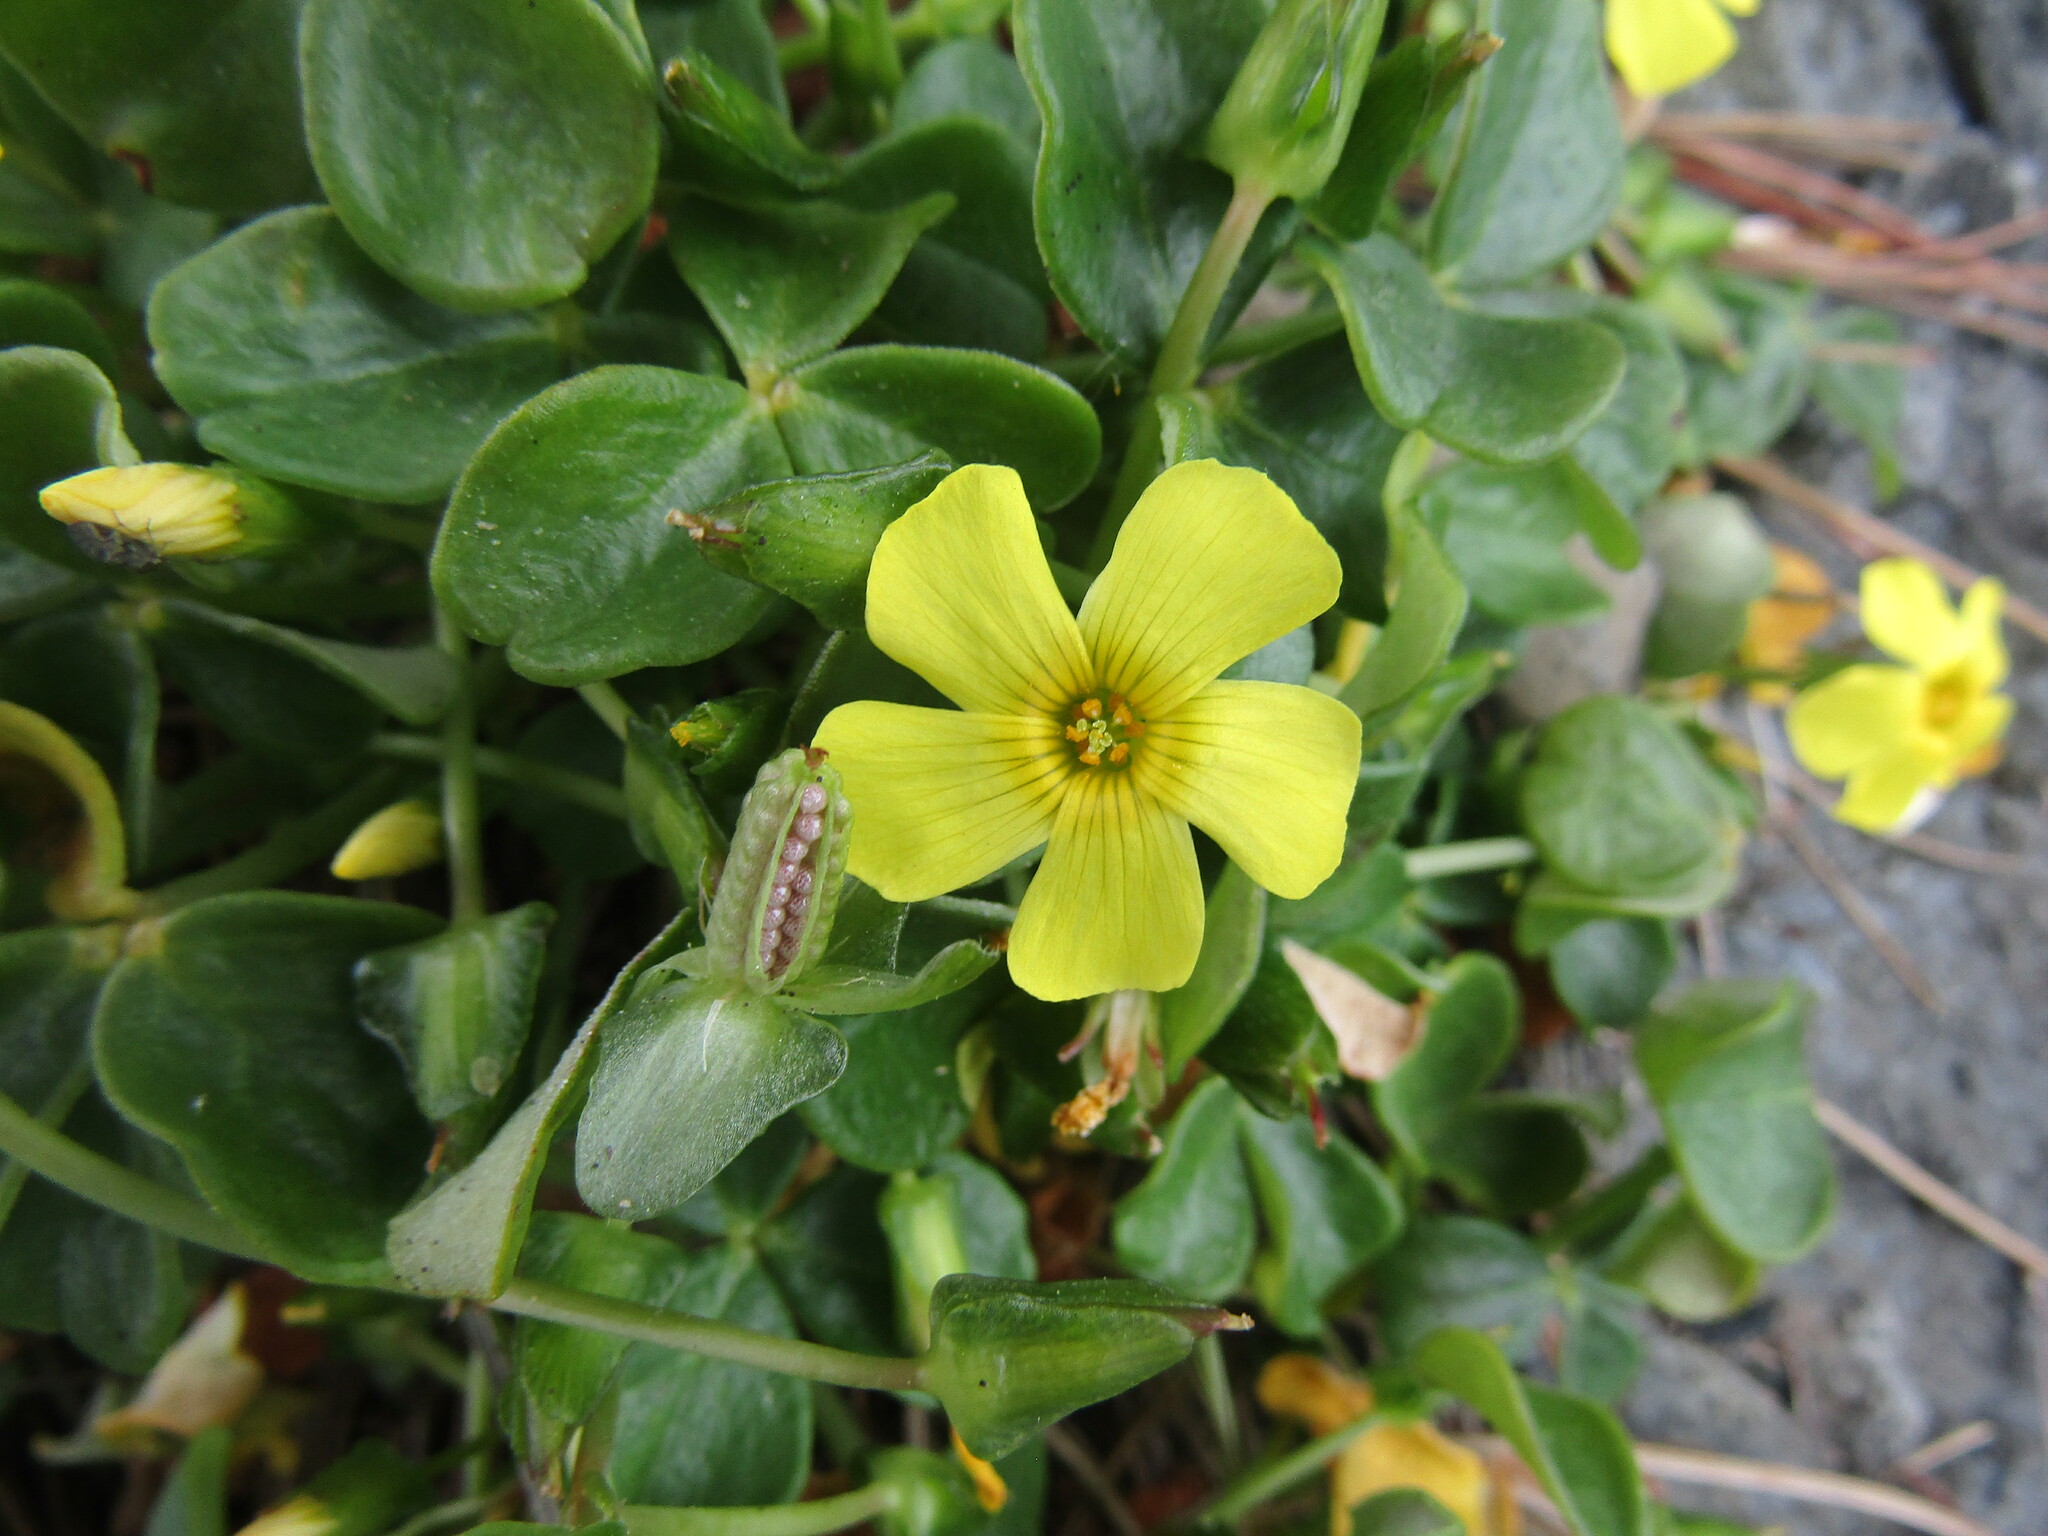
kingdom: Plantae
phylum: Tracheophyta
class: Magnoliopsida
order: Oxalidales
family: Oxalidaceae
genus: Oxalis
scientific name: Oxalis megalorrhiza
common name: Fleshy yellow-sorrel
